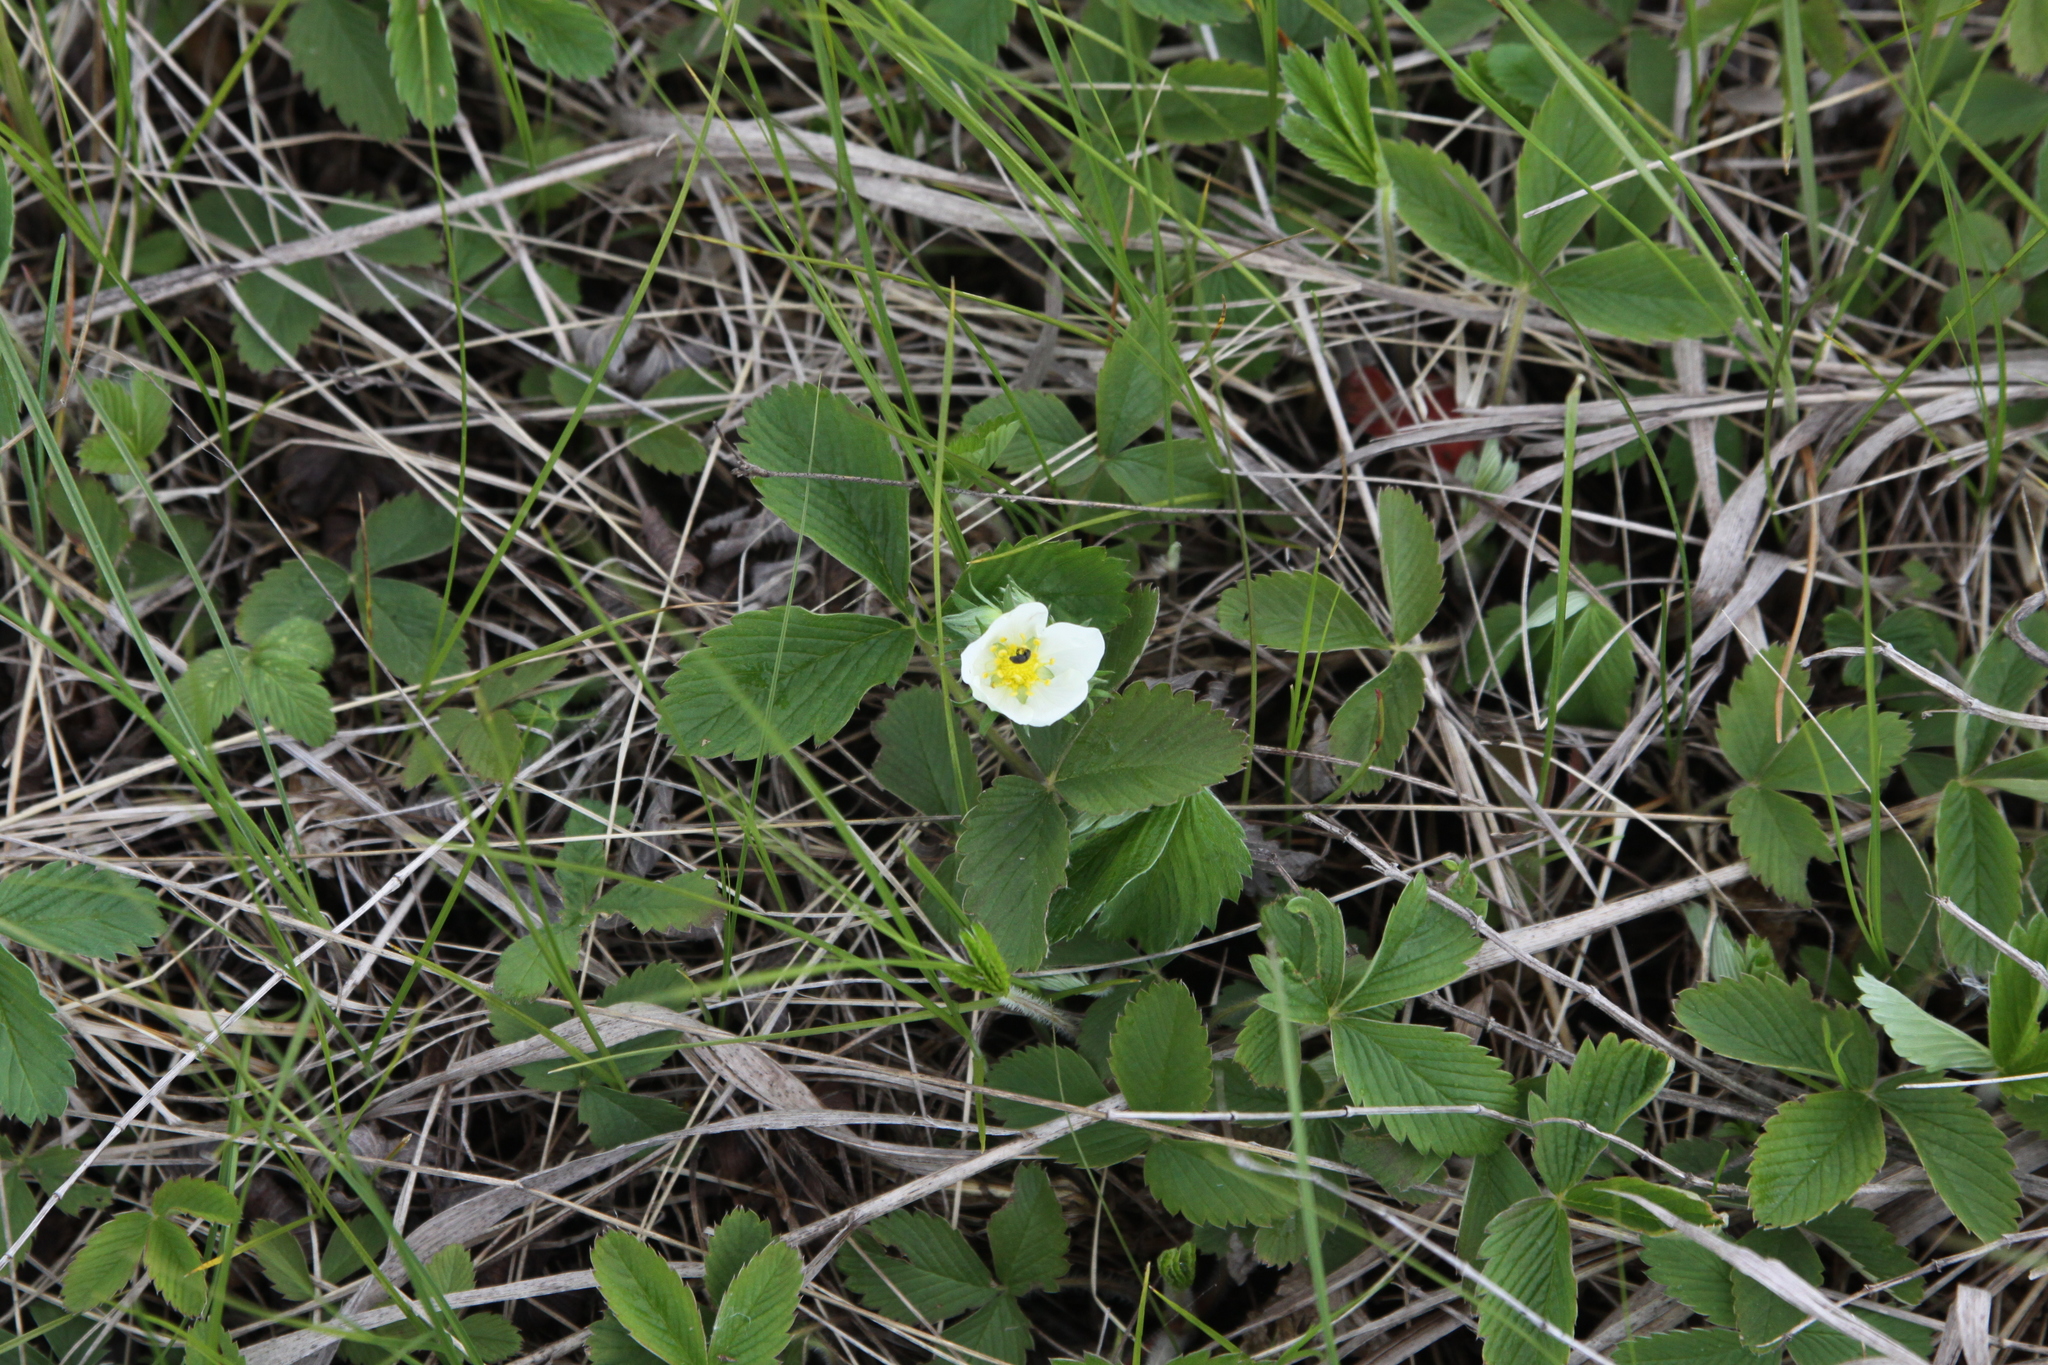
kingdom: Plantae
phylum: Tracheophyta
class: Magnoliopsida
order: Rosales
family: Rosaceae
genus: Fragaria
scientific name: Fragaria viridis
